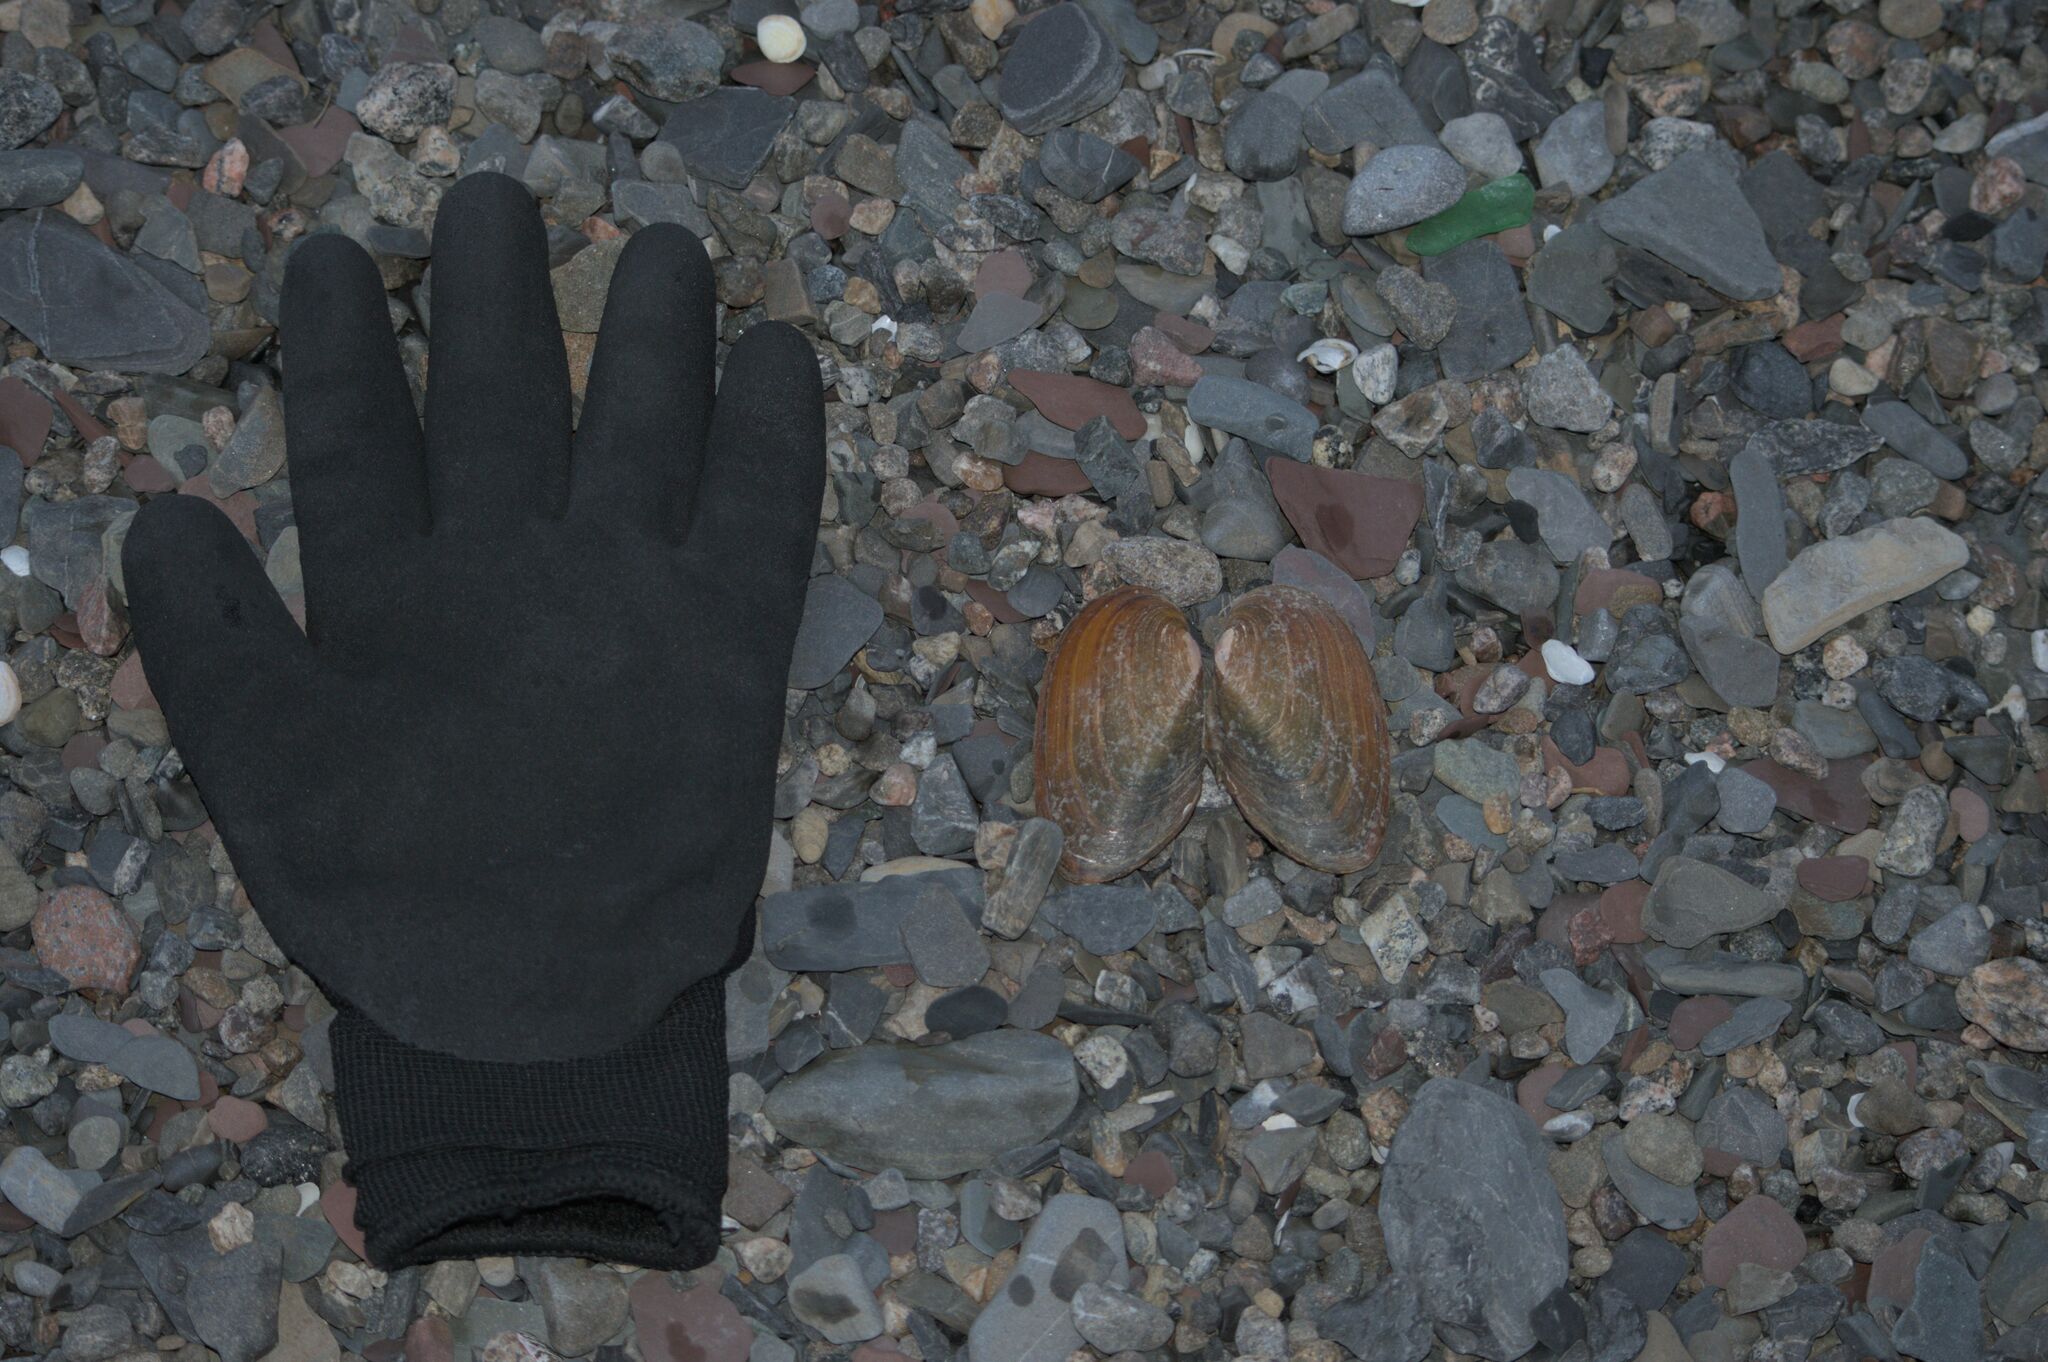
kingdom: Animalia
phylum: Mollusca
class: Bivalvia
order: Unionida
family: Unionidae
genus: Elliptio
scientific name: Elliptio complanata
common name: Eastern elliptio
